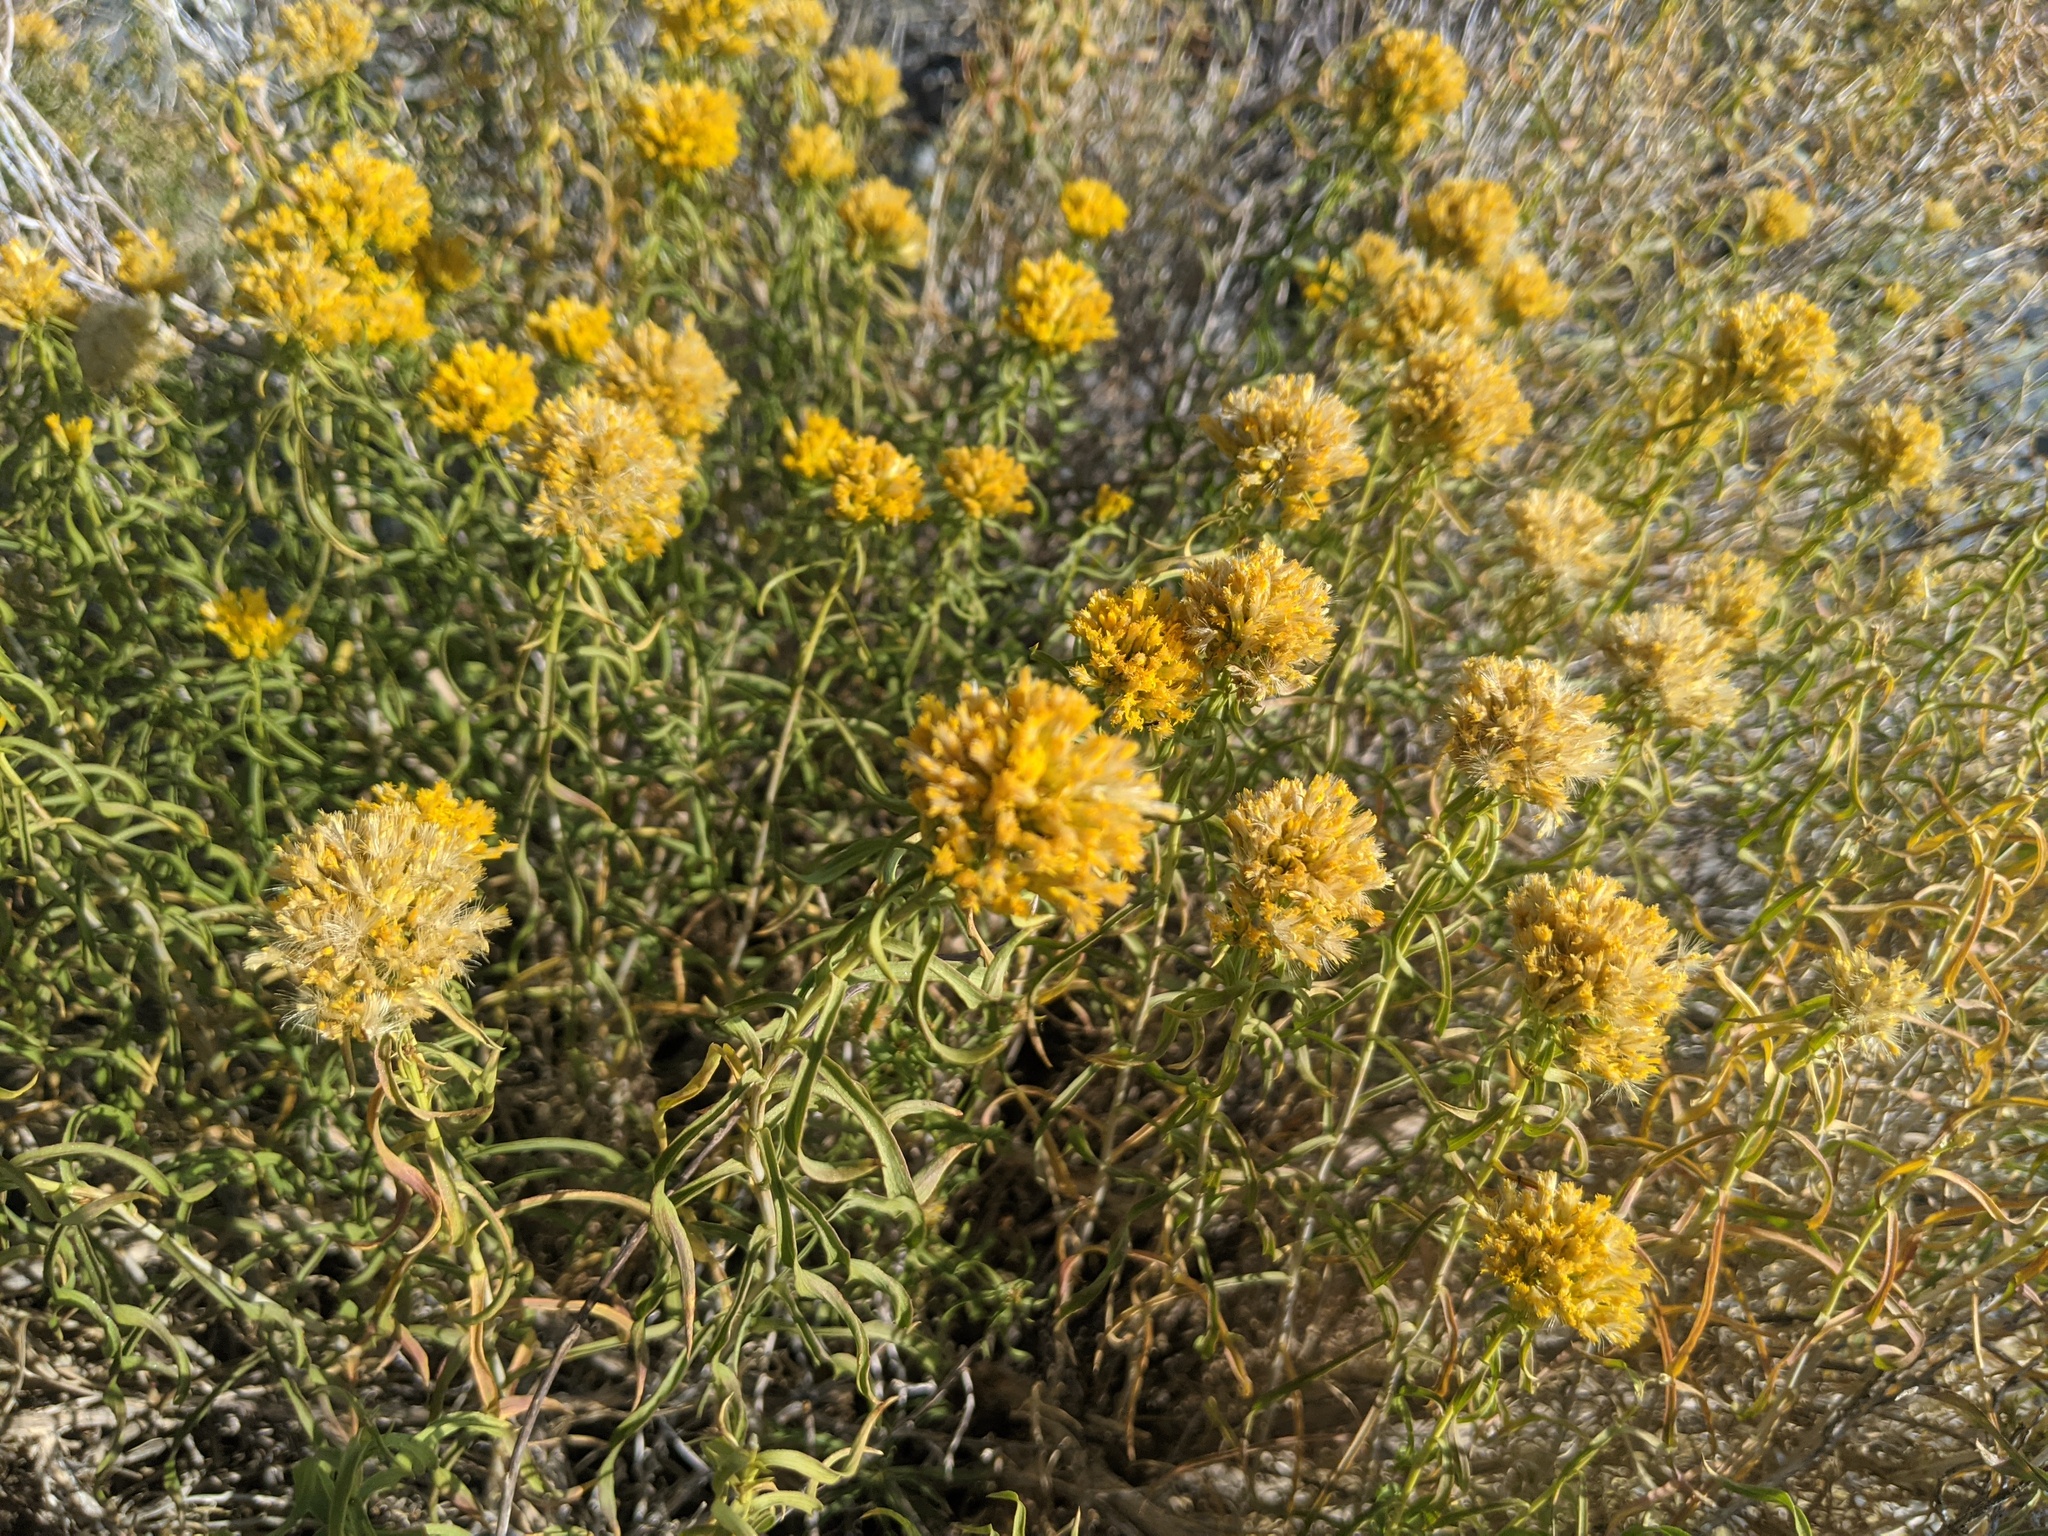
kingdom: Plantae
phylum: Tracheophyta
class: Magnoliopsida
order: Asterales
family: Asteraceae
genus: Chrysothamnus
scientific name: Chrysothamnus viscidiflorus
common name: Yellow rabbitbrush
